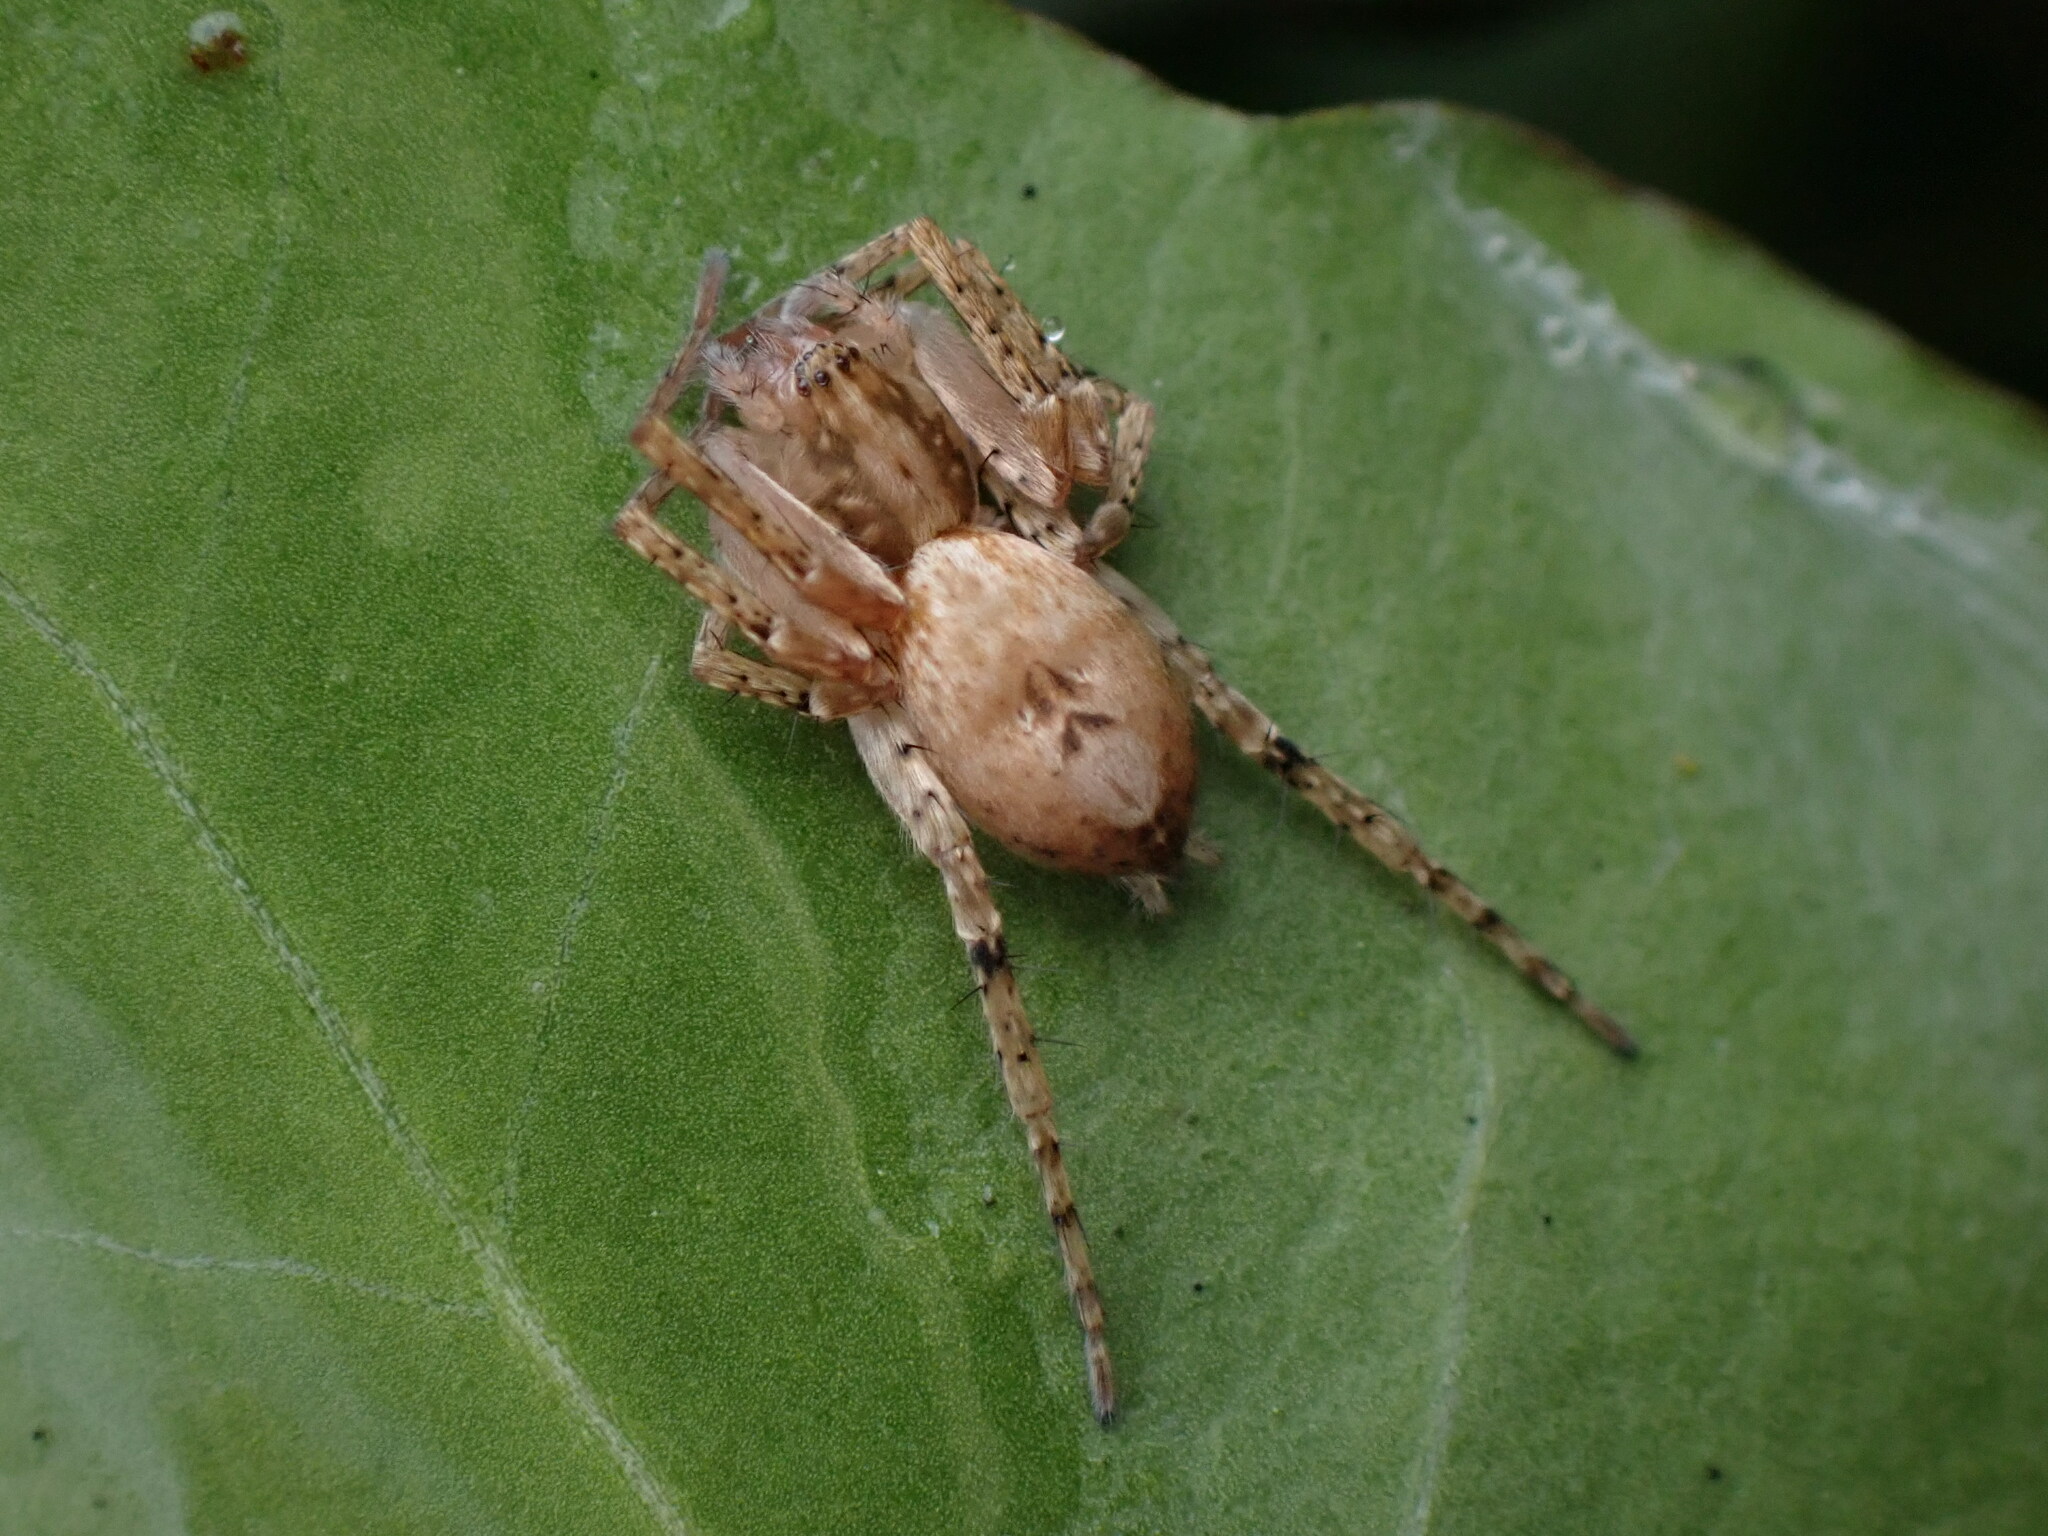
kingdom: Animalia
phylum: Arthropoda
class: Arachnida
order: Araneae
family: Anyphaenidae
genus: Anyphaena
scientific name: Anyphaena accentuata
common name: Buzzing spider
